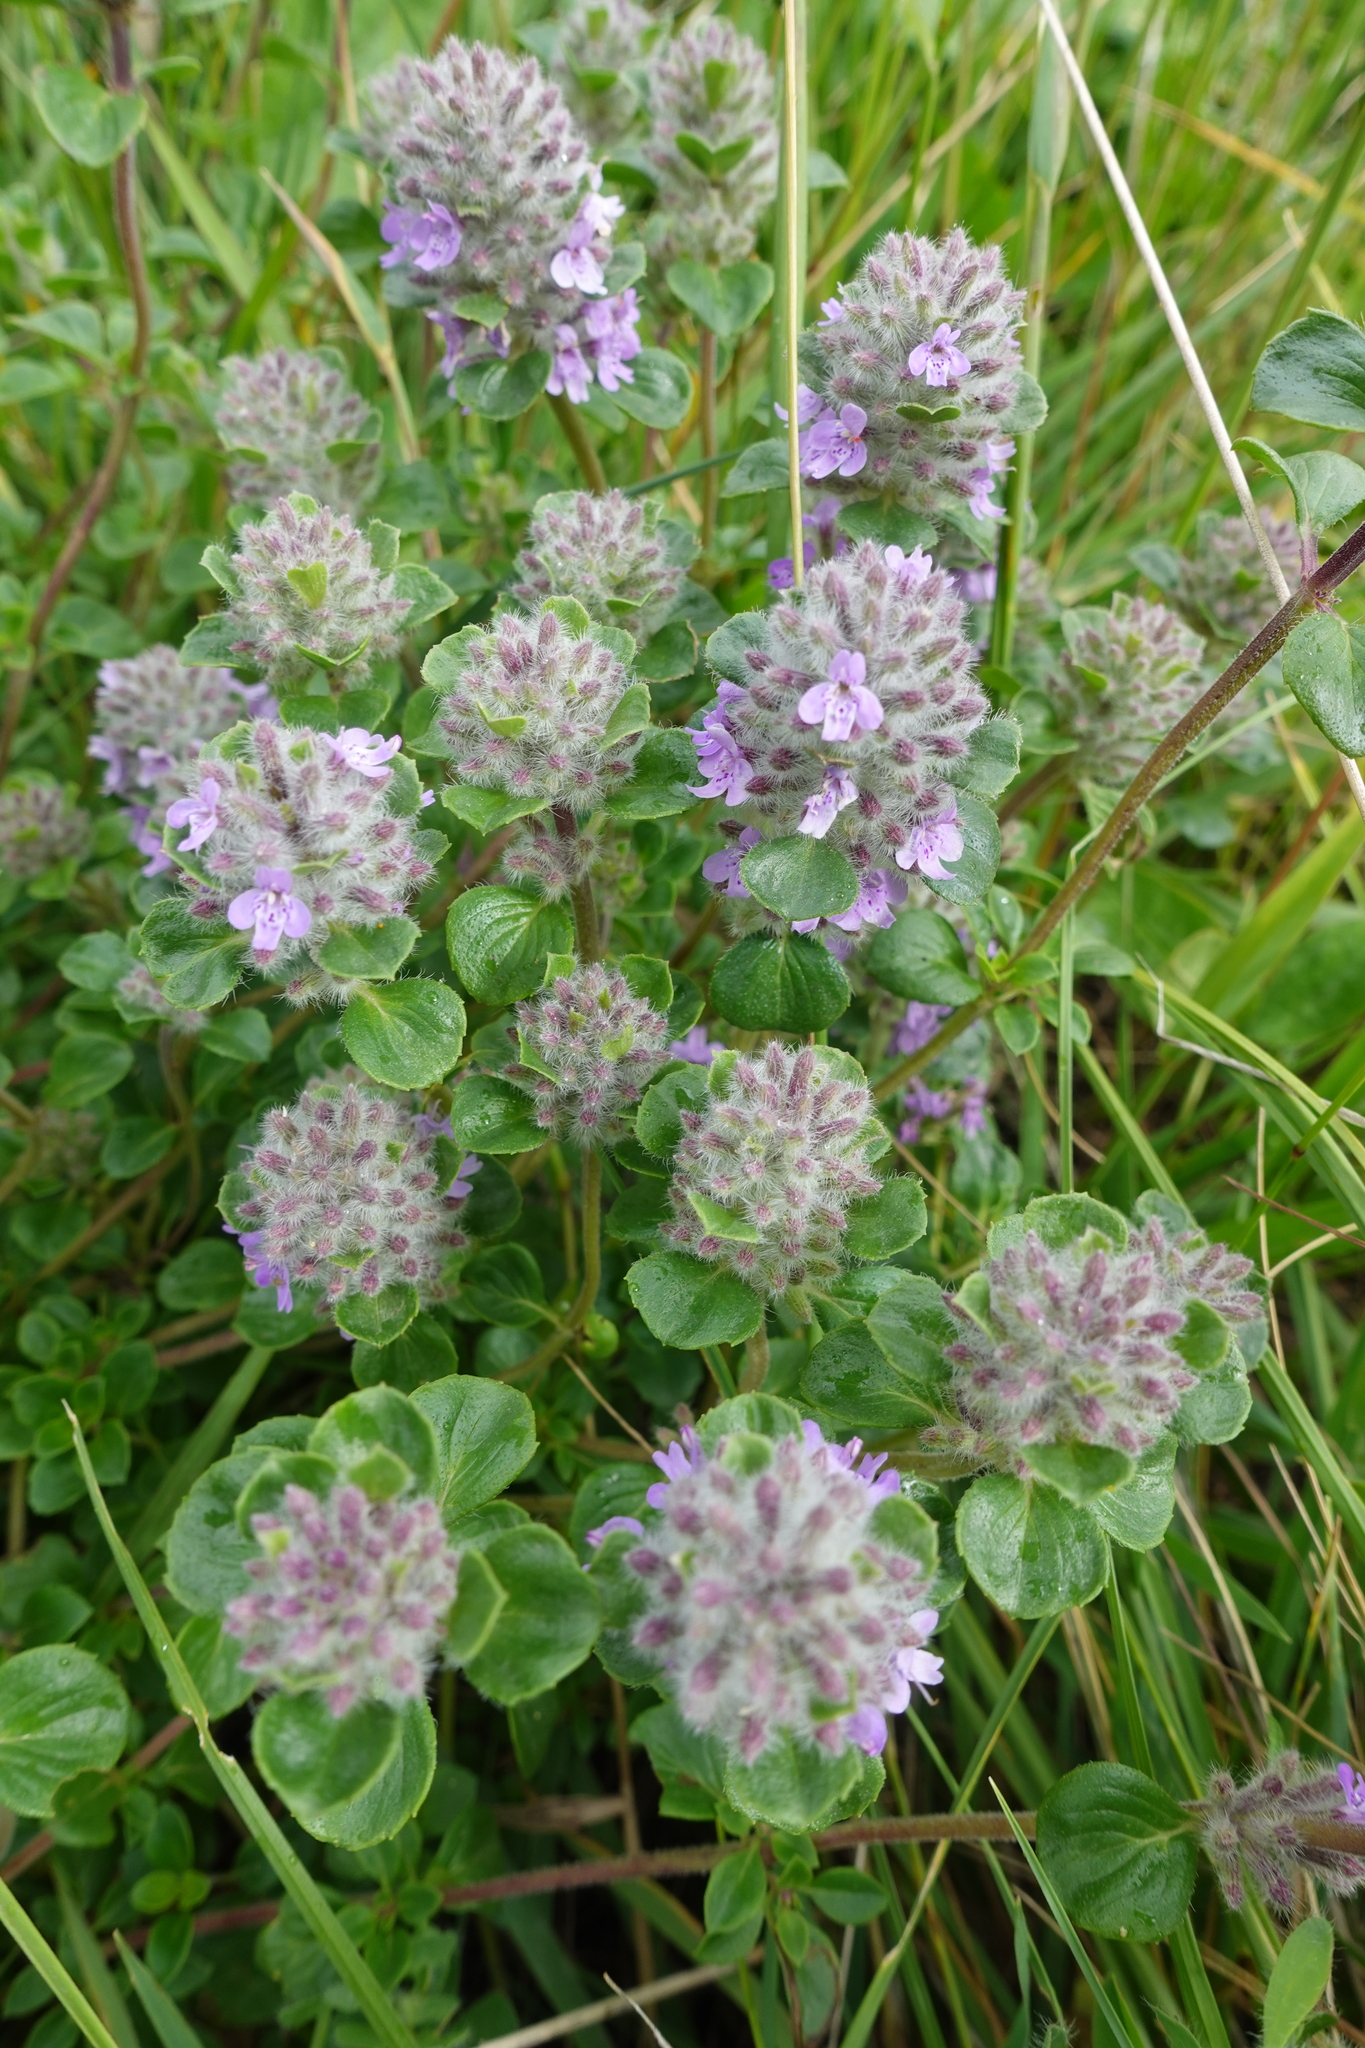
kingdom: Plantae
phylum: Tracheophyta
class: Magnoliopsida
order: Lamiales
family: Lamiaceae
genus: Ziziphora
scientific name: Ziziphora puschkinii
